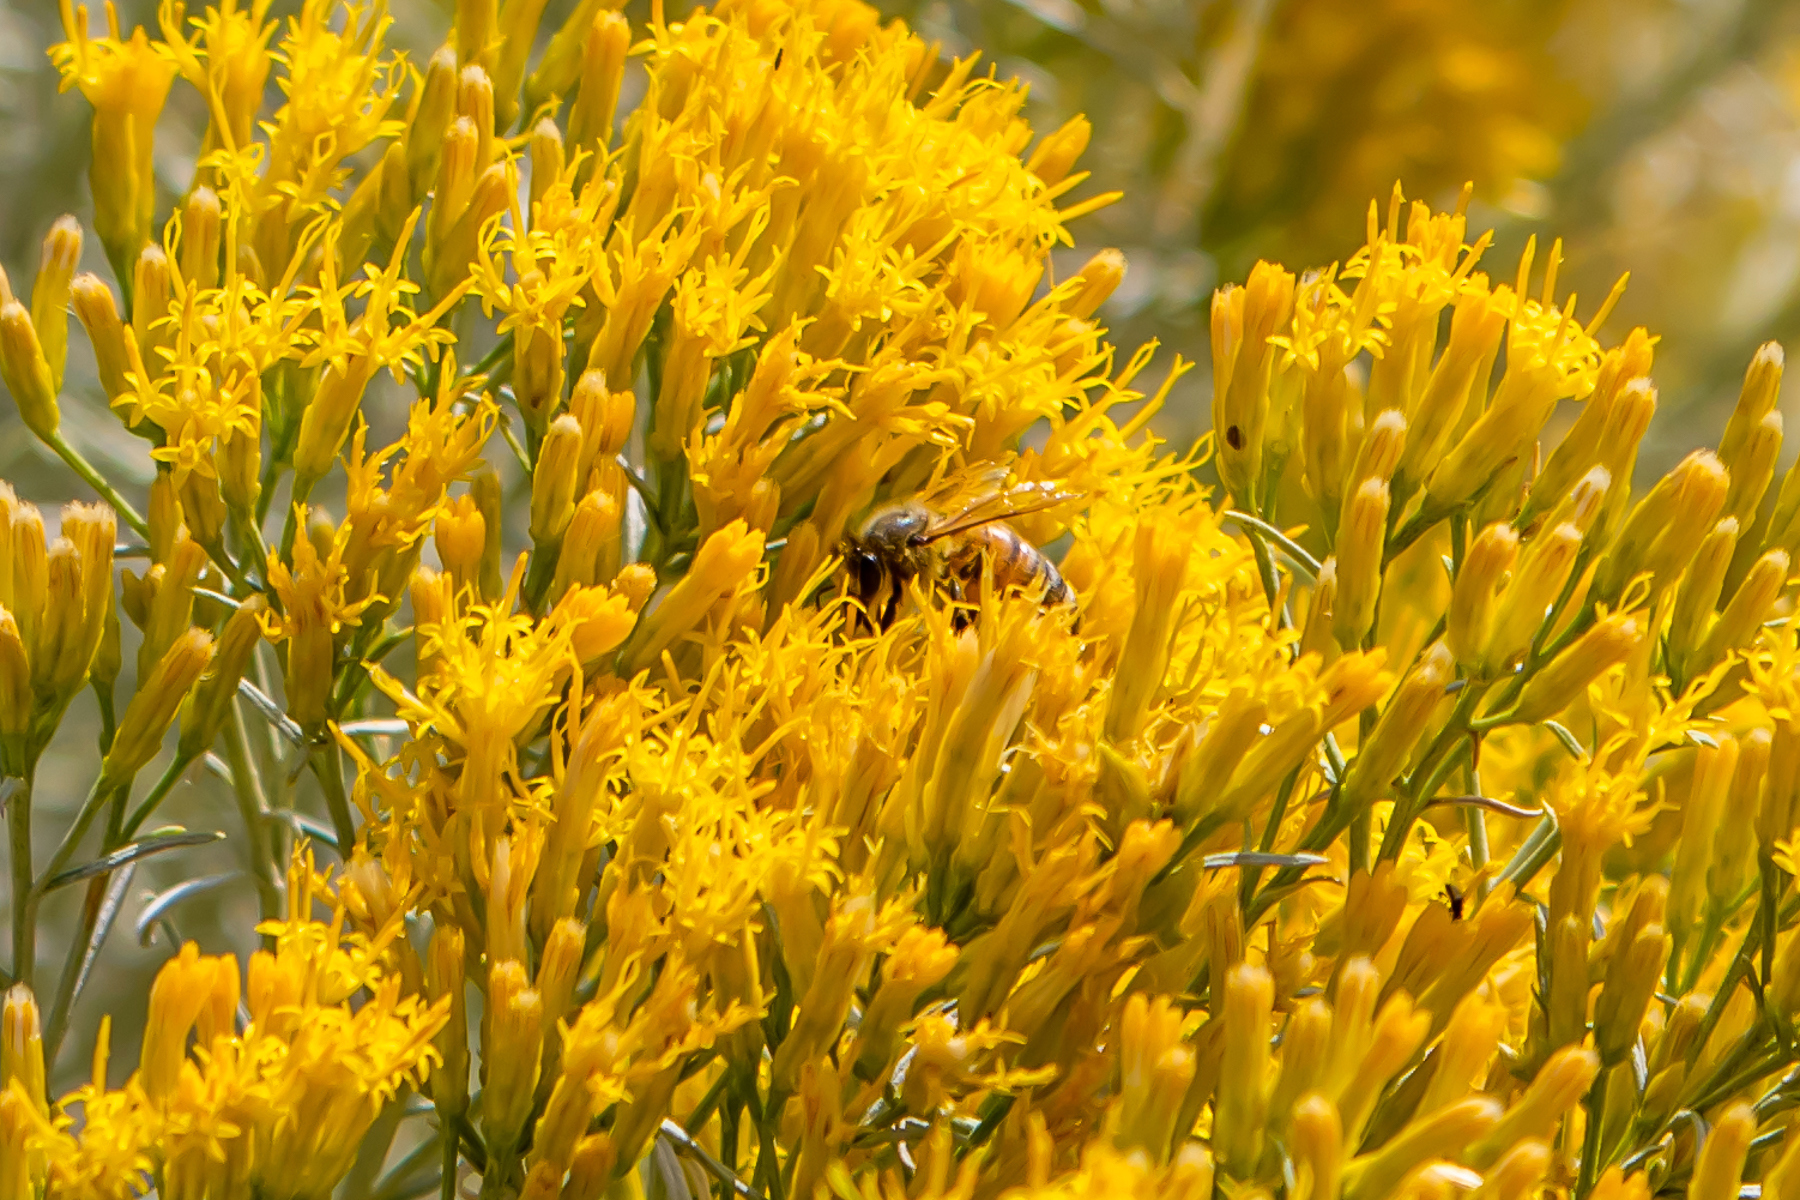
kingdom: Animalia
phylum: Arthropoda
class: Insecta
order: Hymenoptera
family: Apidae
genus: Apis
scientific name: Apis mellifera
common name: Honey bee
